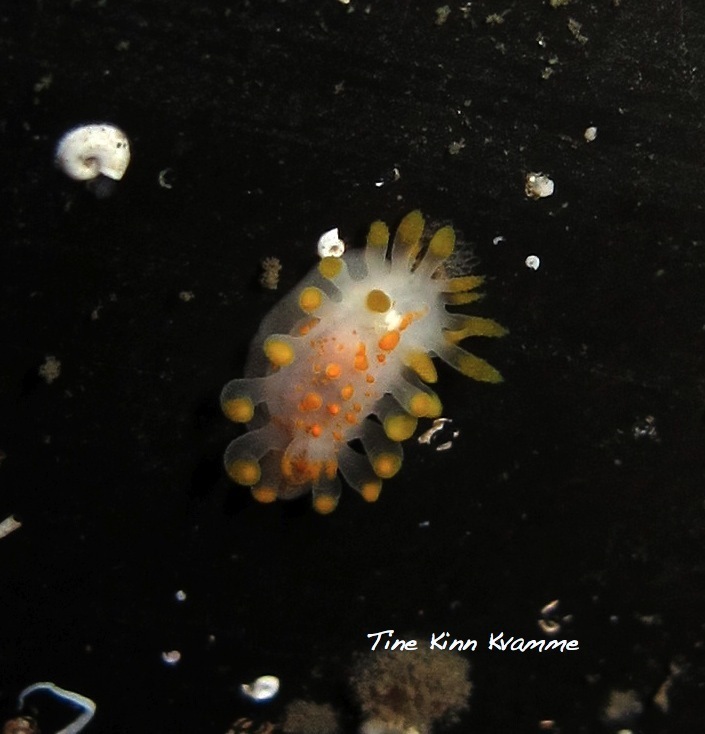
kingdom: Animalia
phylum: Mollusca
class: Gastropoda
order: Nudibranchia
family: Polyceridae
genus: Limacia
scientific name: Limacia clavigera
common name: Orange-clubbed sea slug
